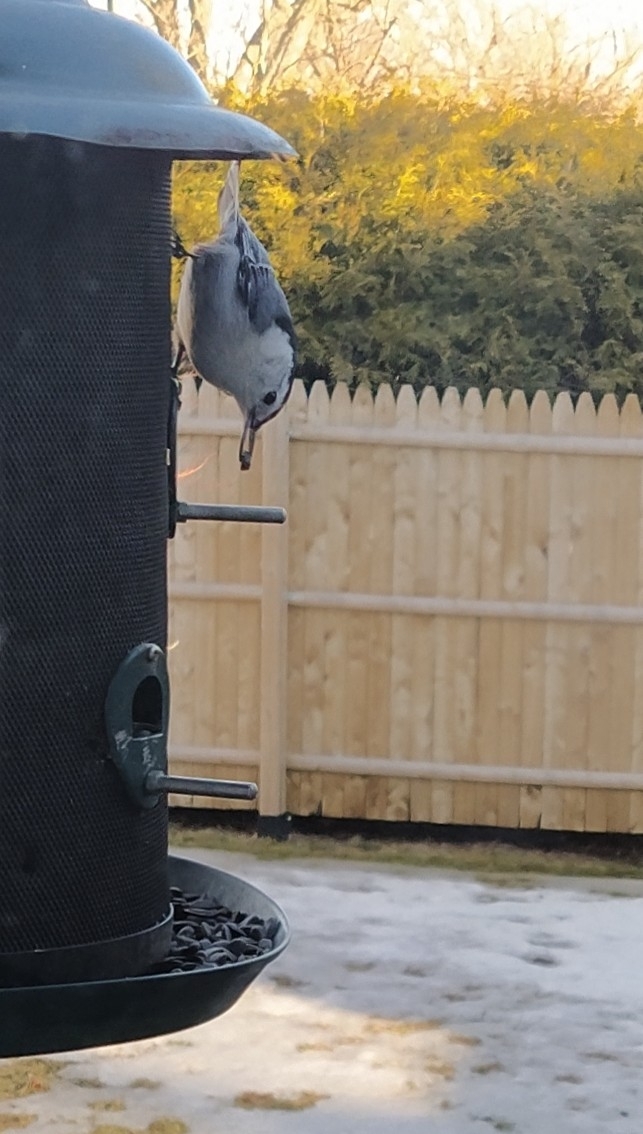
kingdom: Animalia
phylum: Chordata
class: Aves
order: Passeriformes
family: Sittidae
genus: Sitta
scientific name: Sitta carolinensis
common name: White-breasted nuthatch
